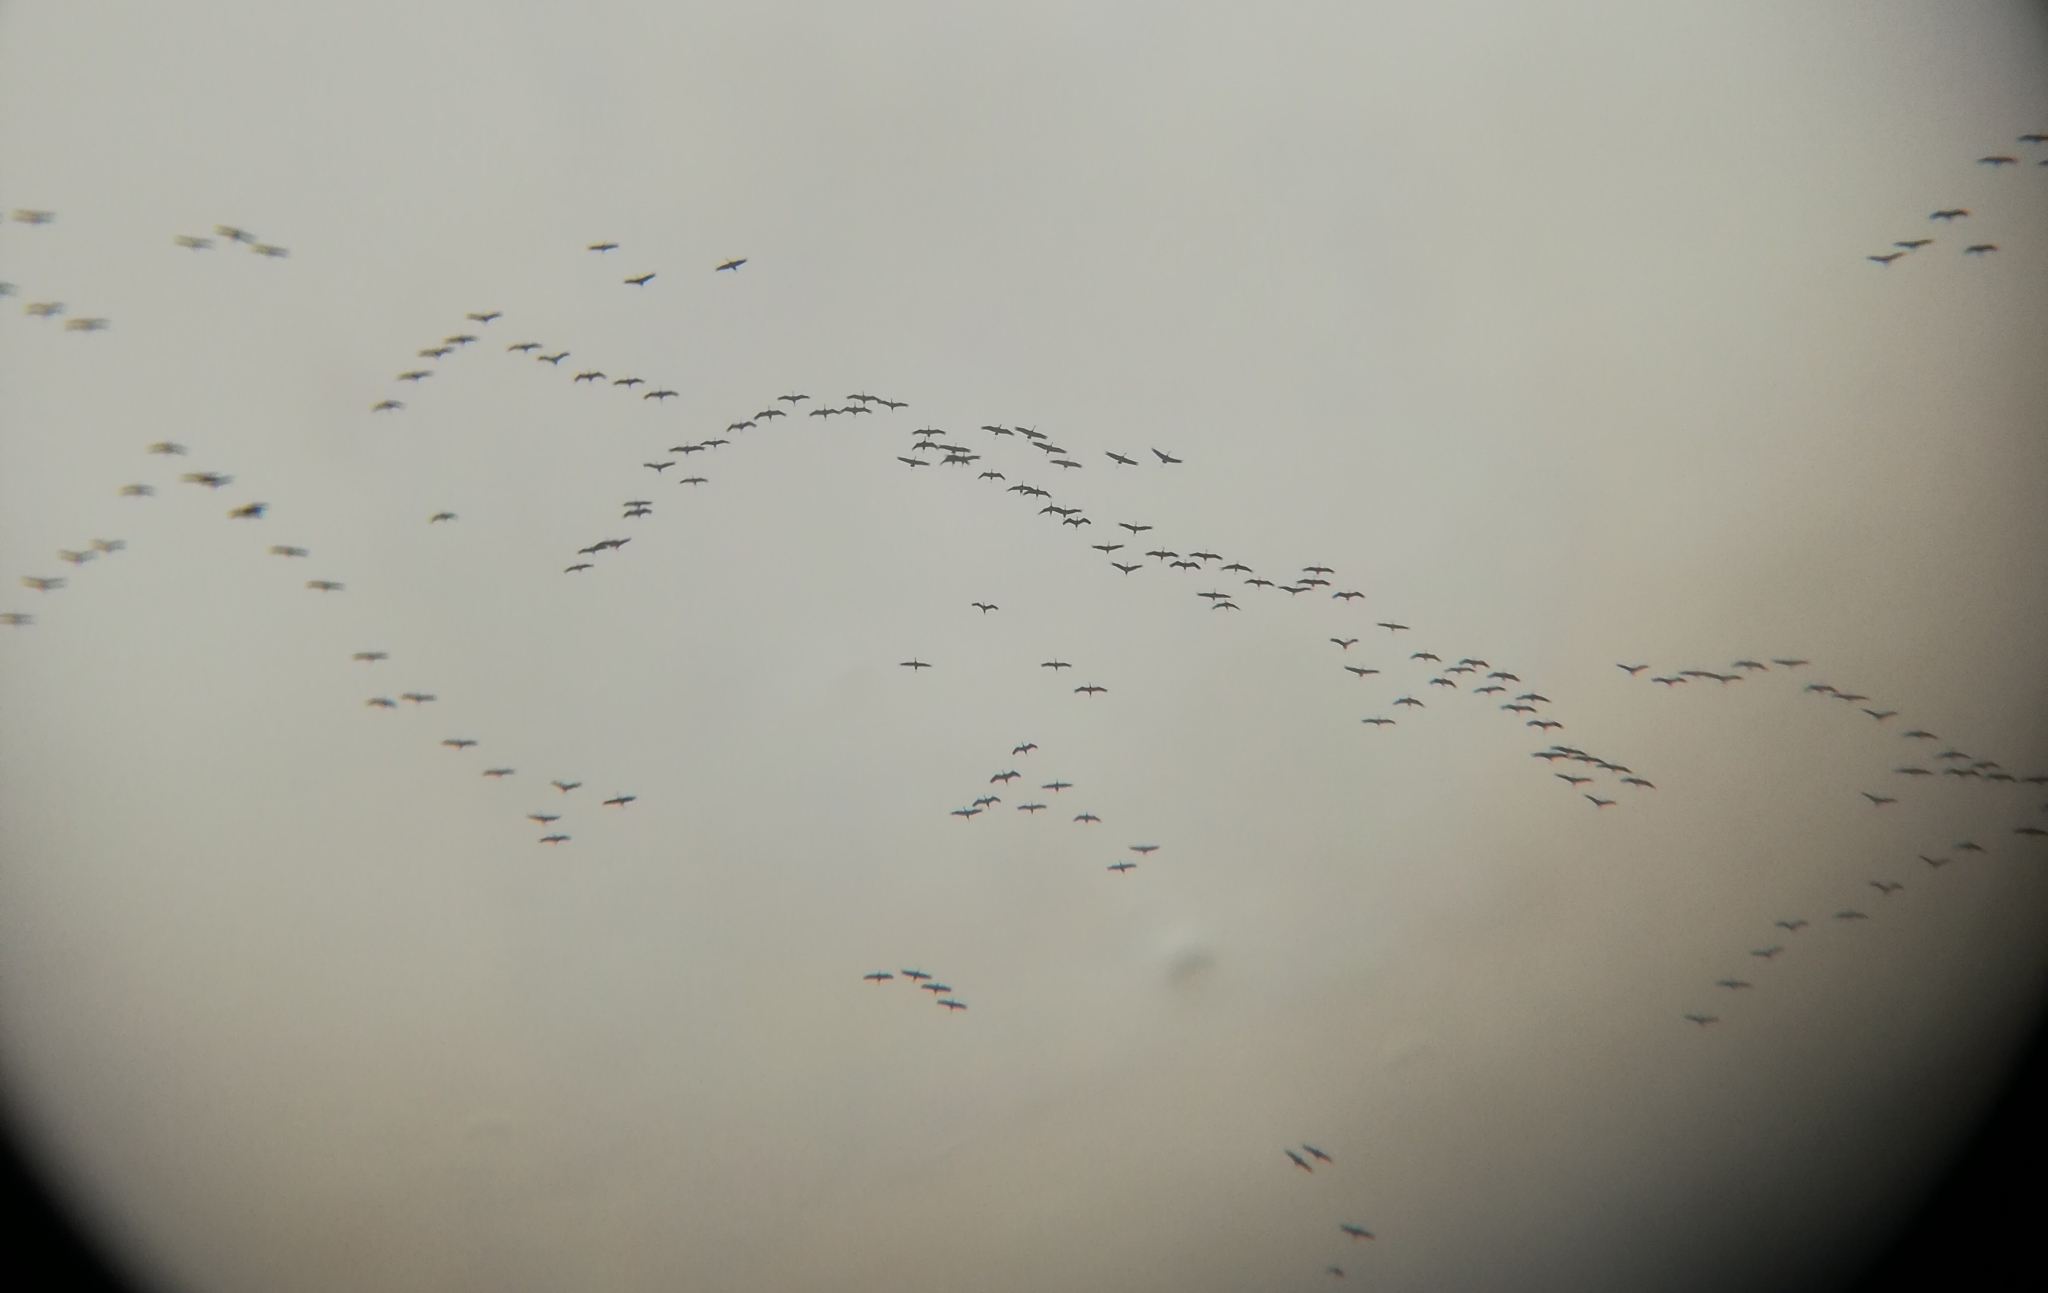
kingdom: Animalia
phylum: Chordata
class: Aves
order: Gruiformes
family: Gruidae
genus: Grus
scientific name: Grus grus
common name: Common crane
